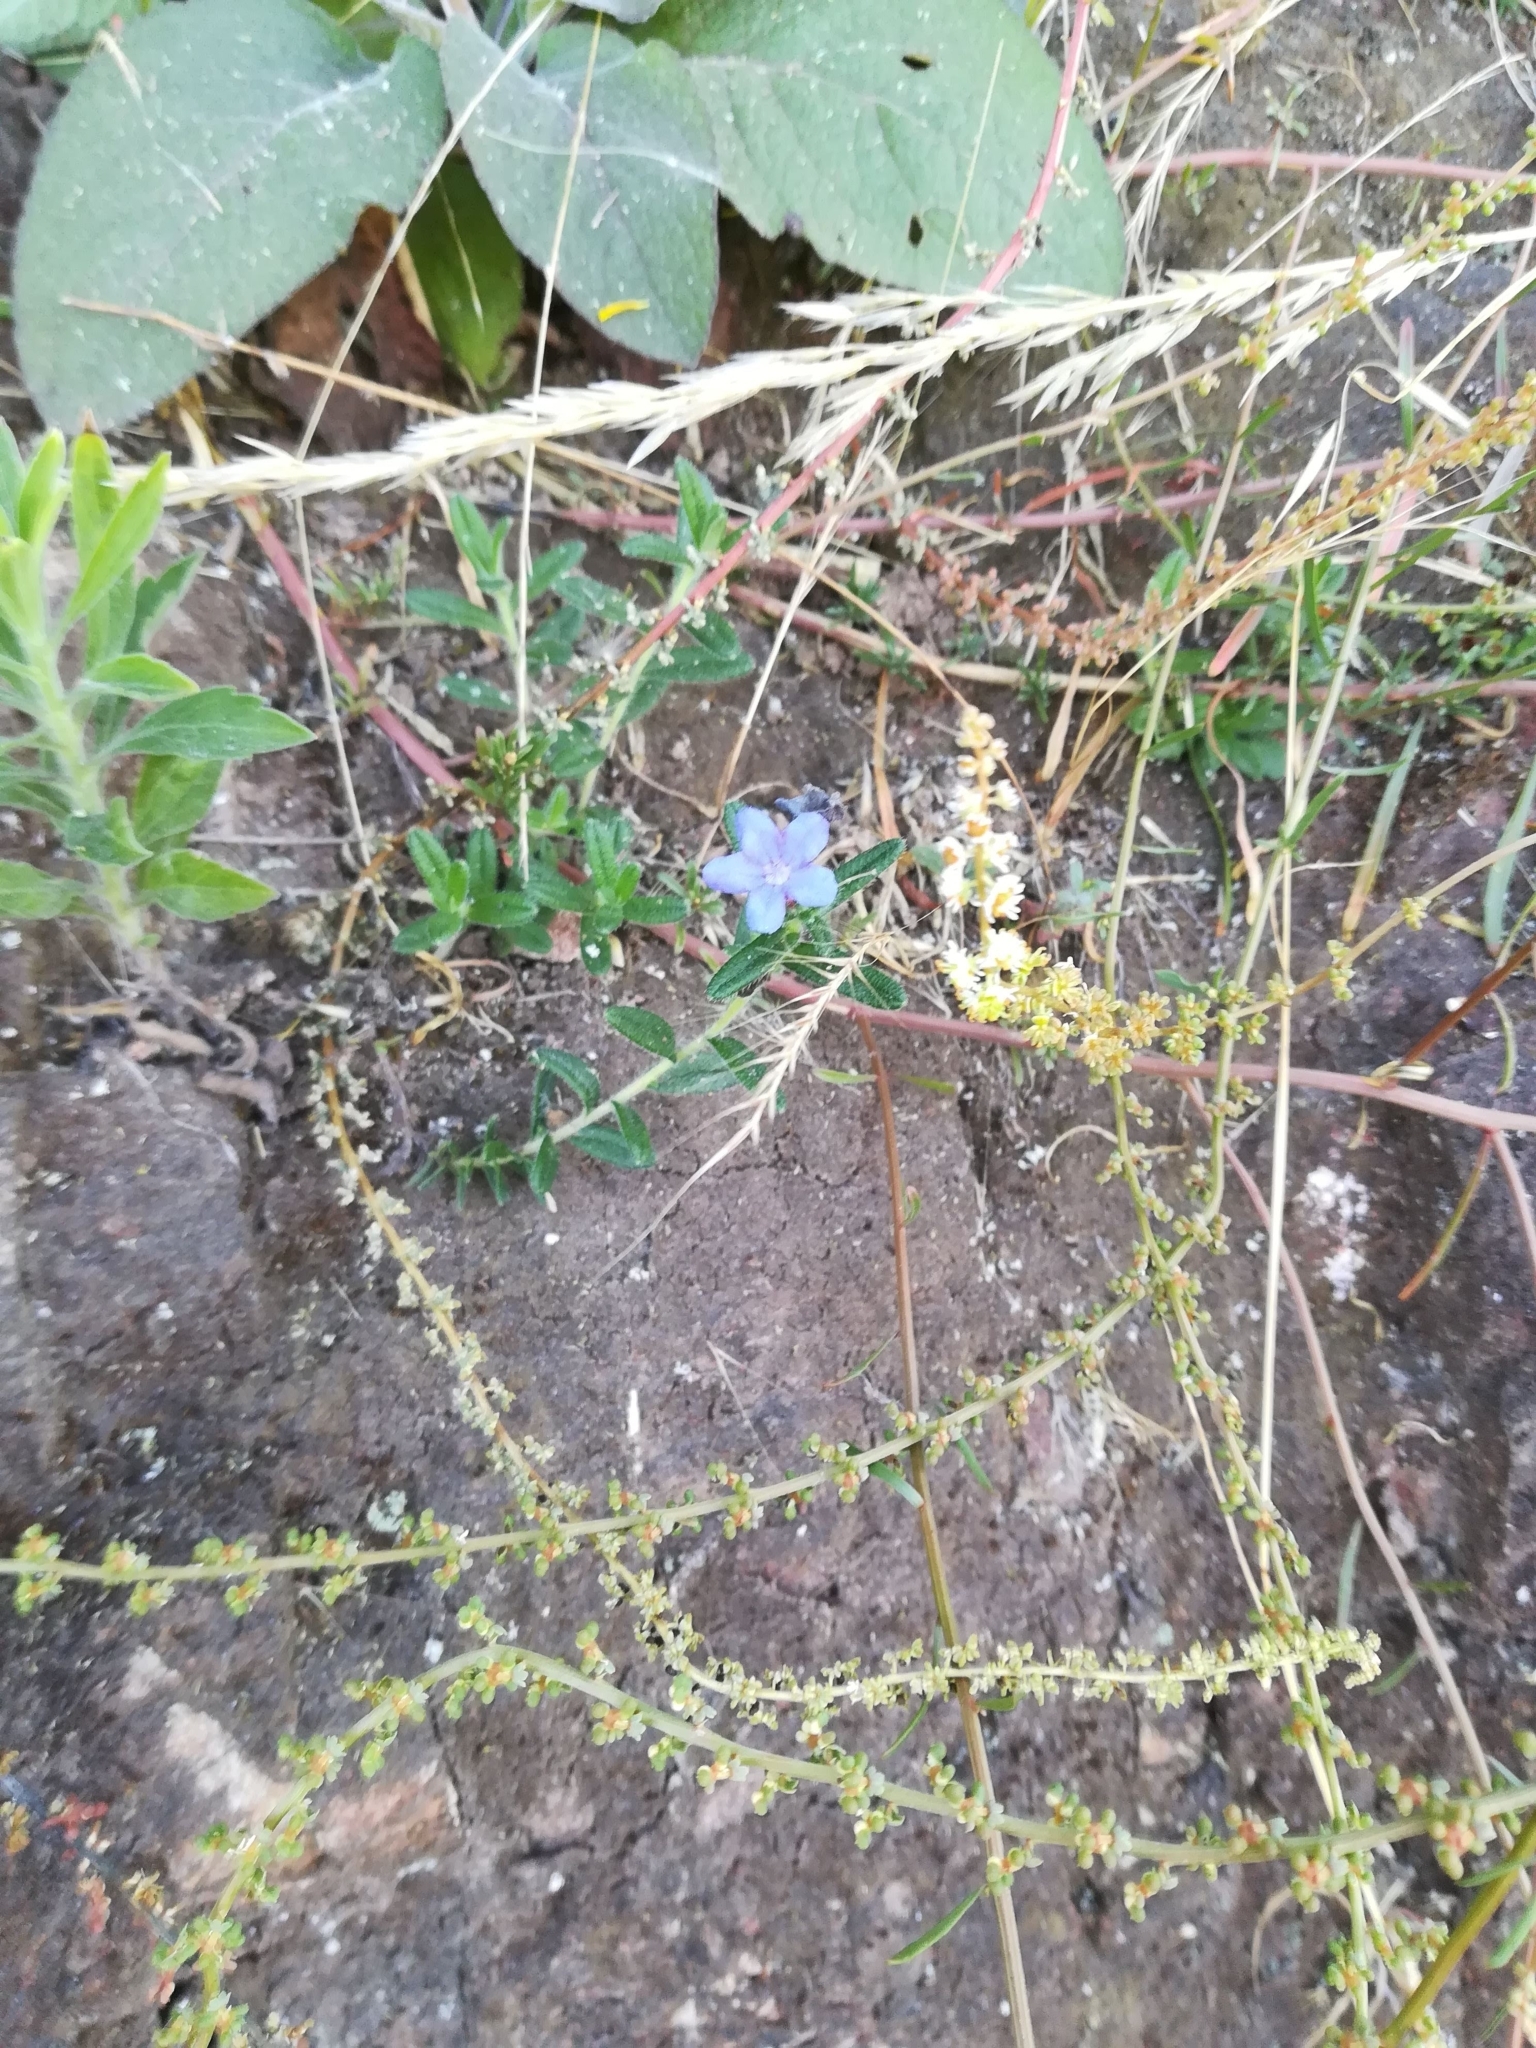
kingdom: Plantae
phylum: Tracheophyta
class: Magnoliopsida
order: Boraginales
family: Boraginaceae
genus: Glandora
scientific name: Glandora prostrata
